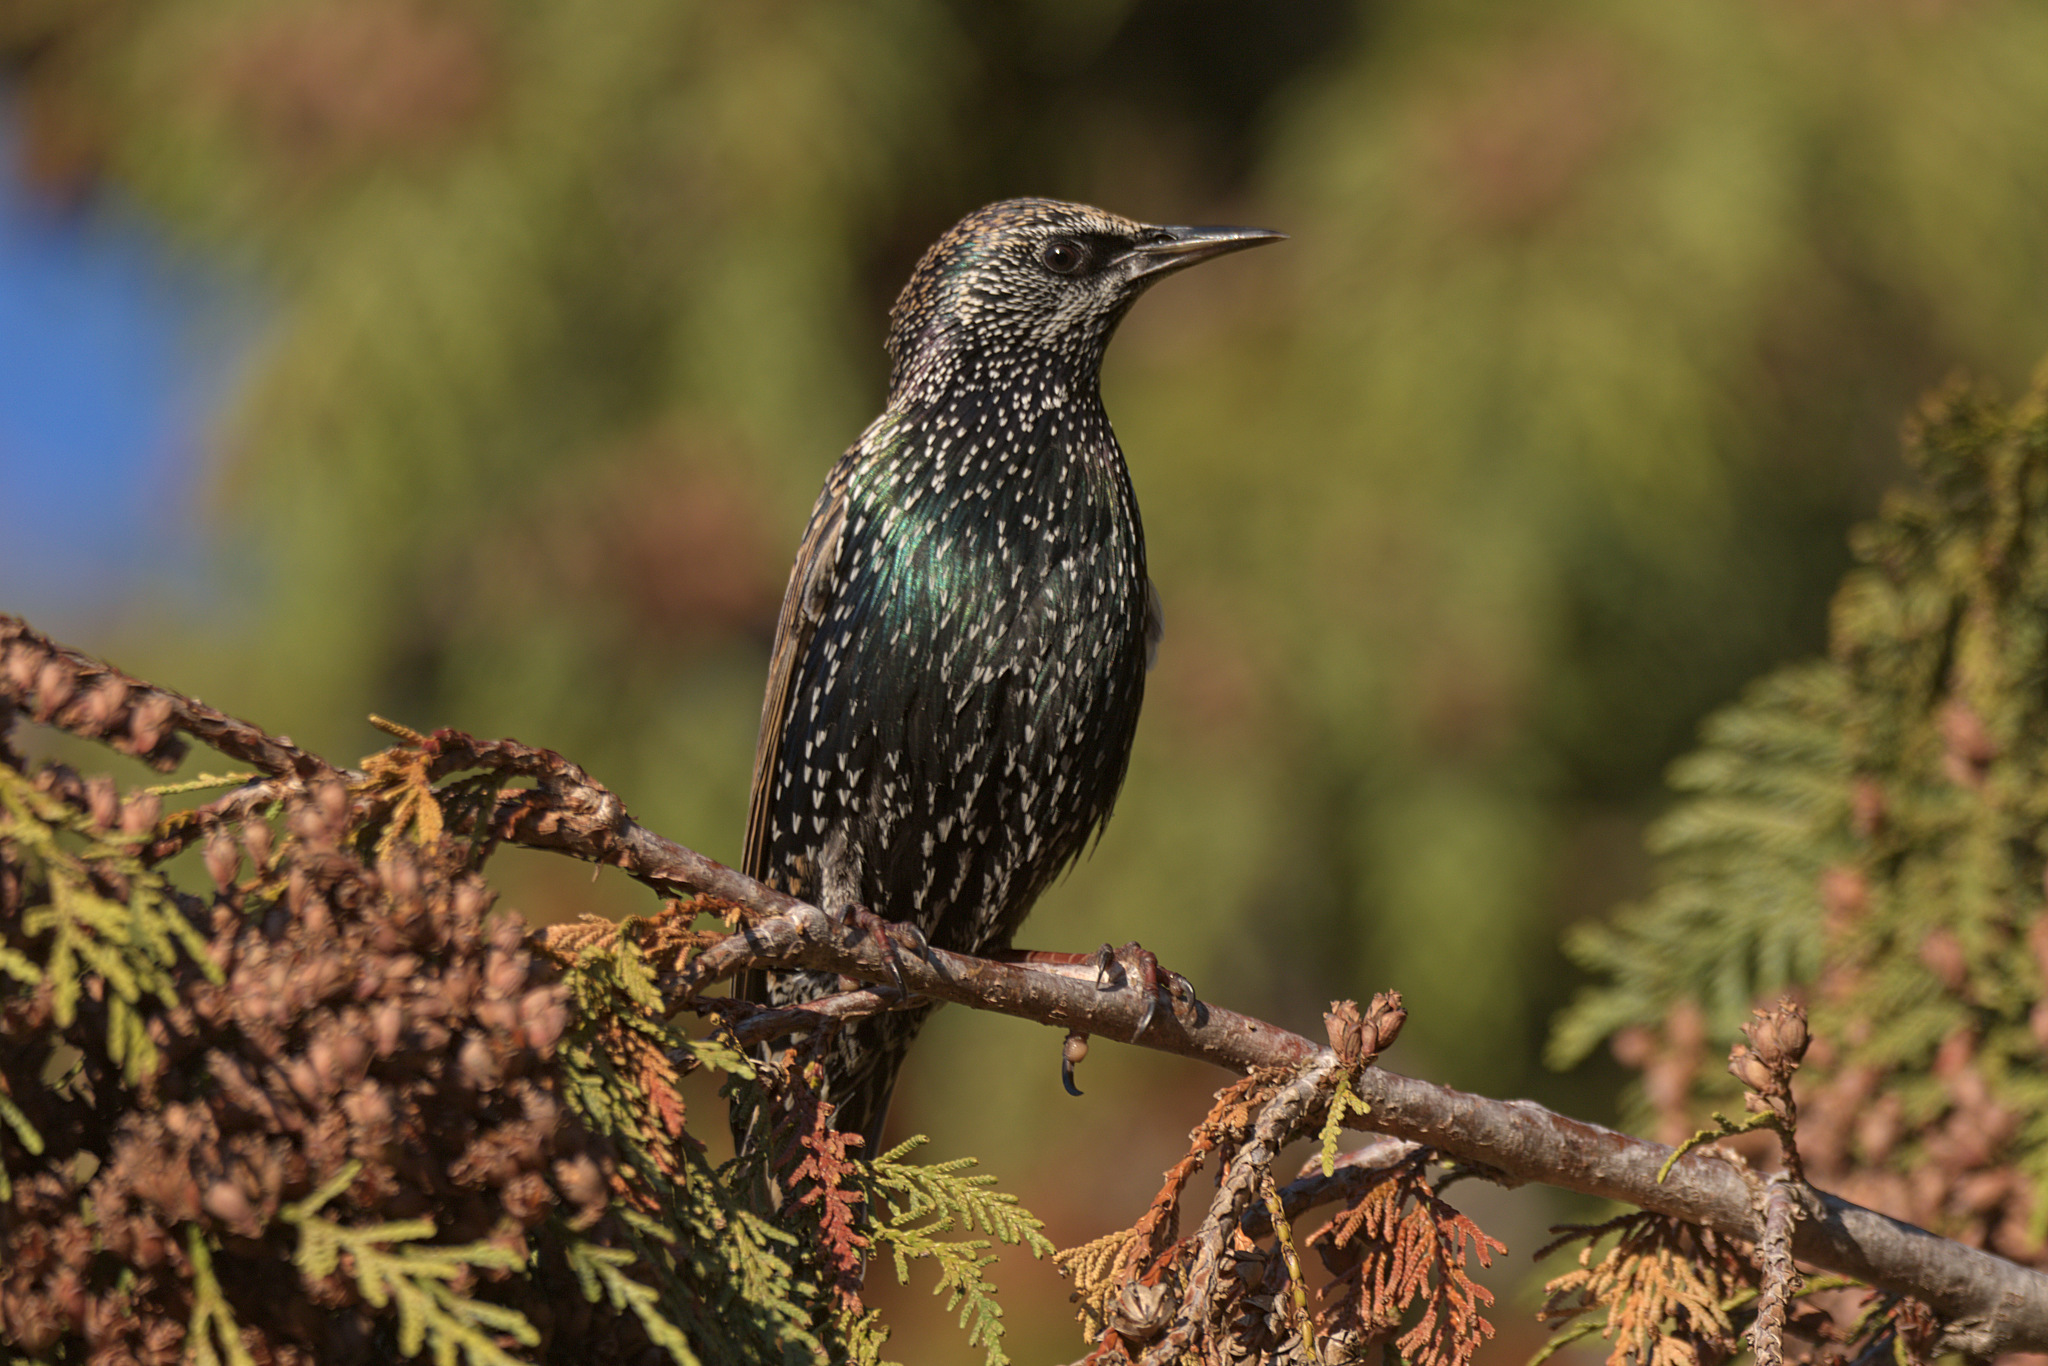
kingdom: Animalia
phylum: Chordata
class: Aves
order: Passeriformes
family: Sturnidae
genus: Sturnus
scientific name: Sturnus vulgaris
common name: Common starling
